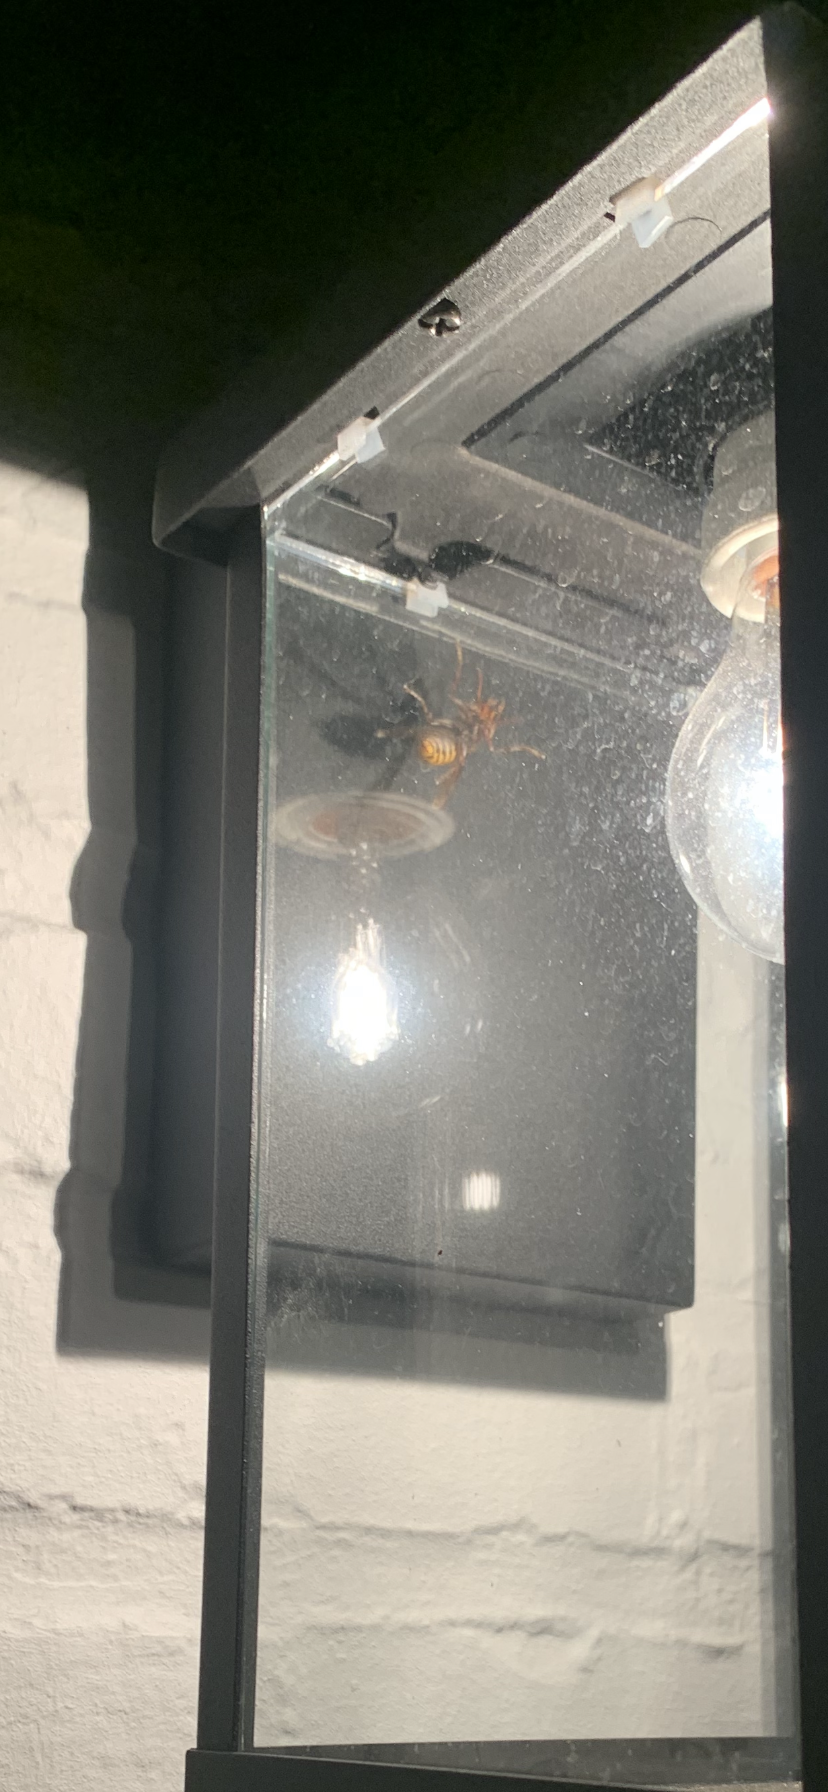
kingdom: Animalia
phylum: Arthropoda
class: Insecta
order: Hymenoptera
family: Vespidae
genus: Vespa
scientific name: Vespa crabro
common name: Hornet
